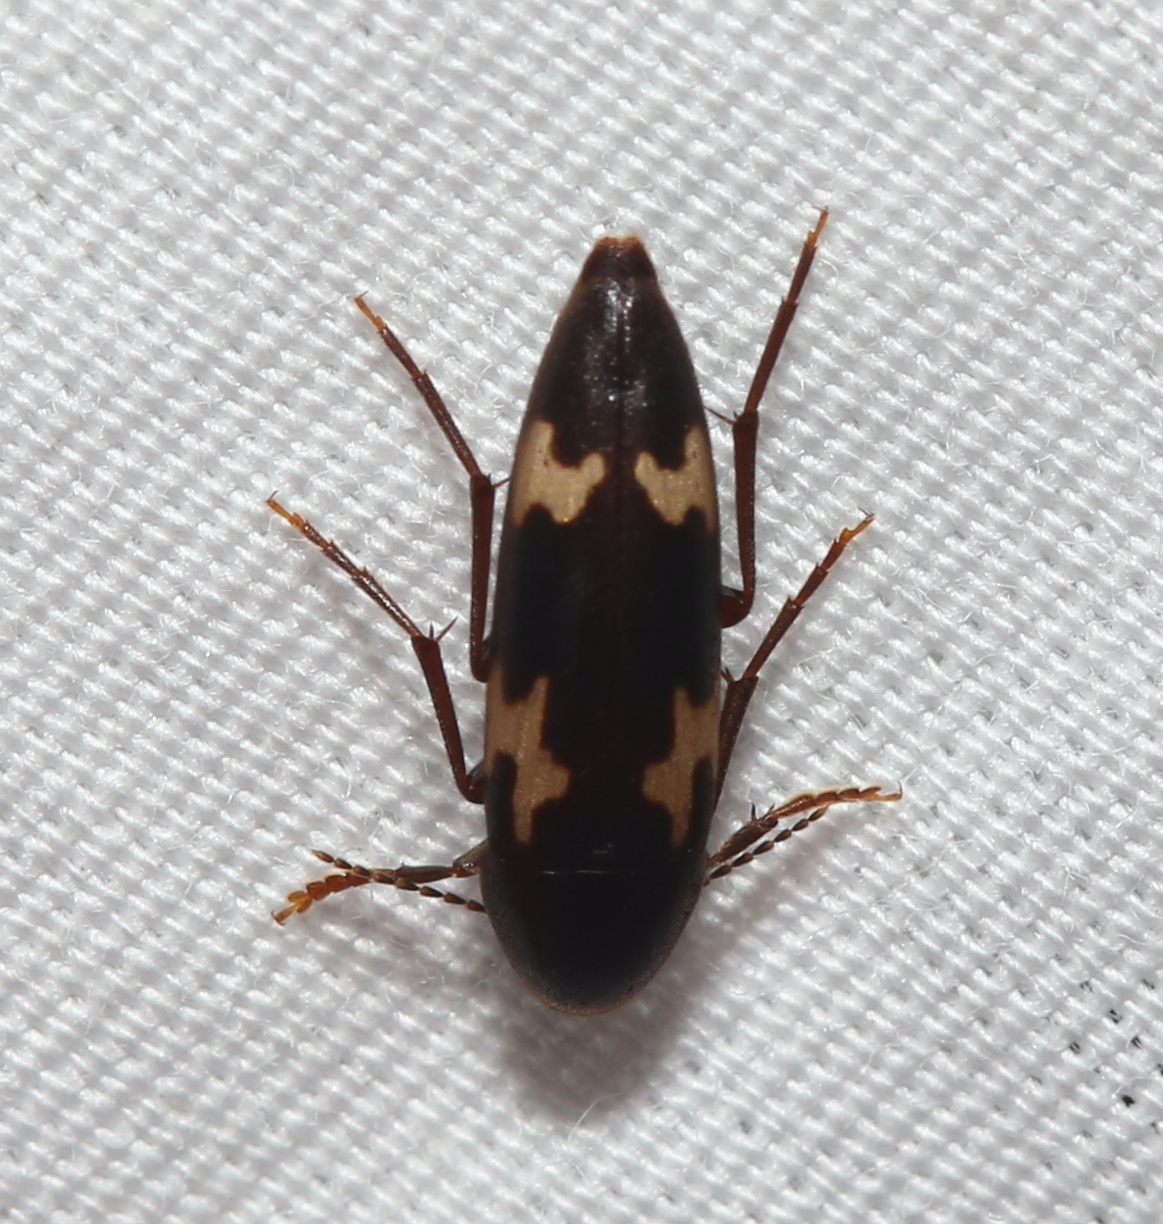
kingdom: Animalia
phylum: Arthropoda
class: Insecta
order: Coleoptera
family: Melandryidae
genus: Dircaea
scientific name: Dircaea liturata
